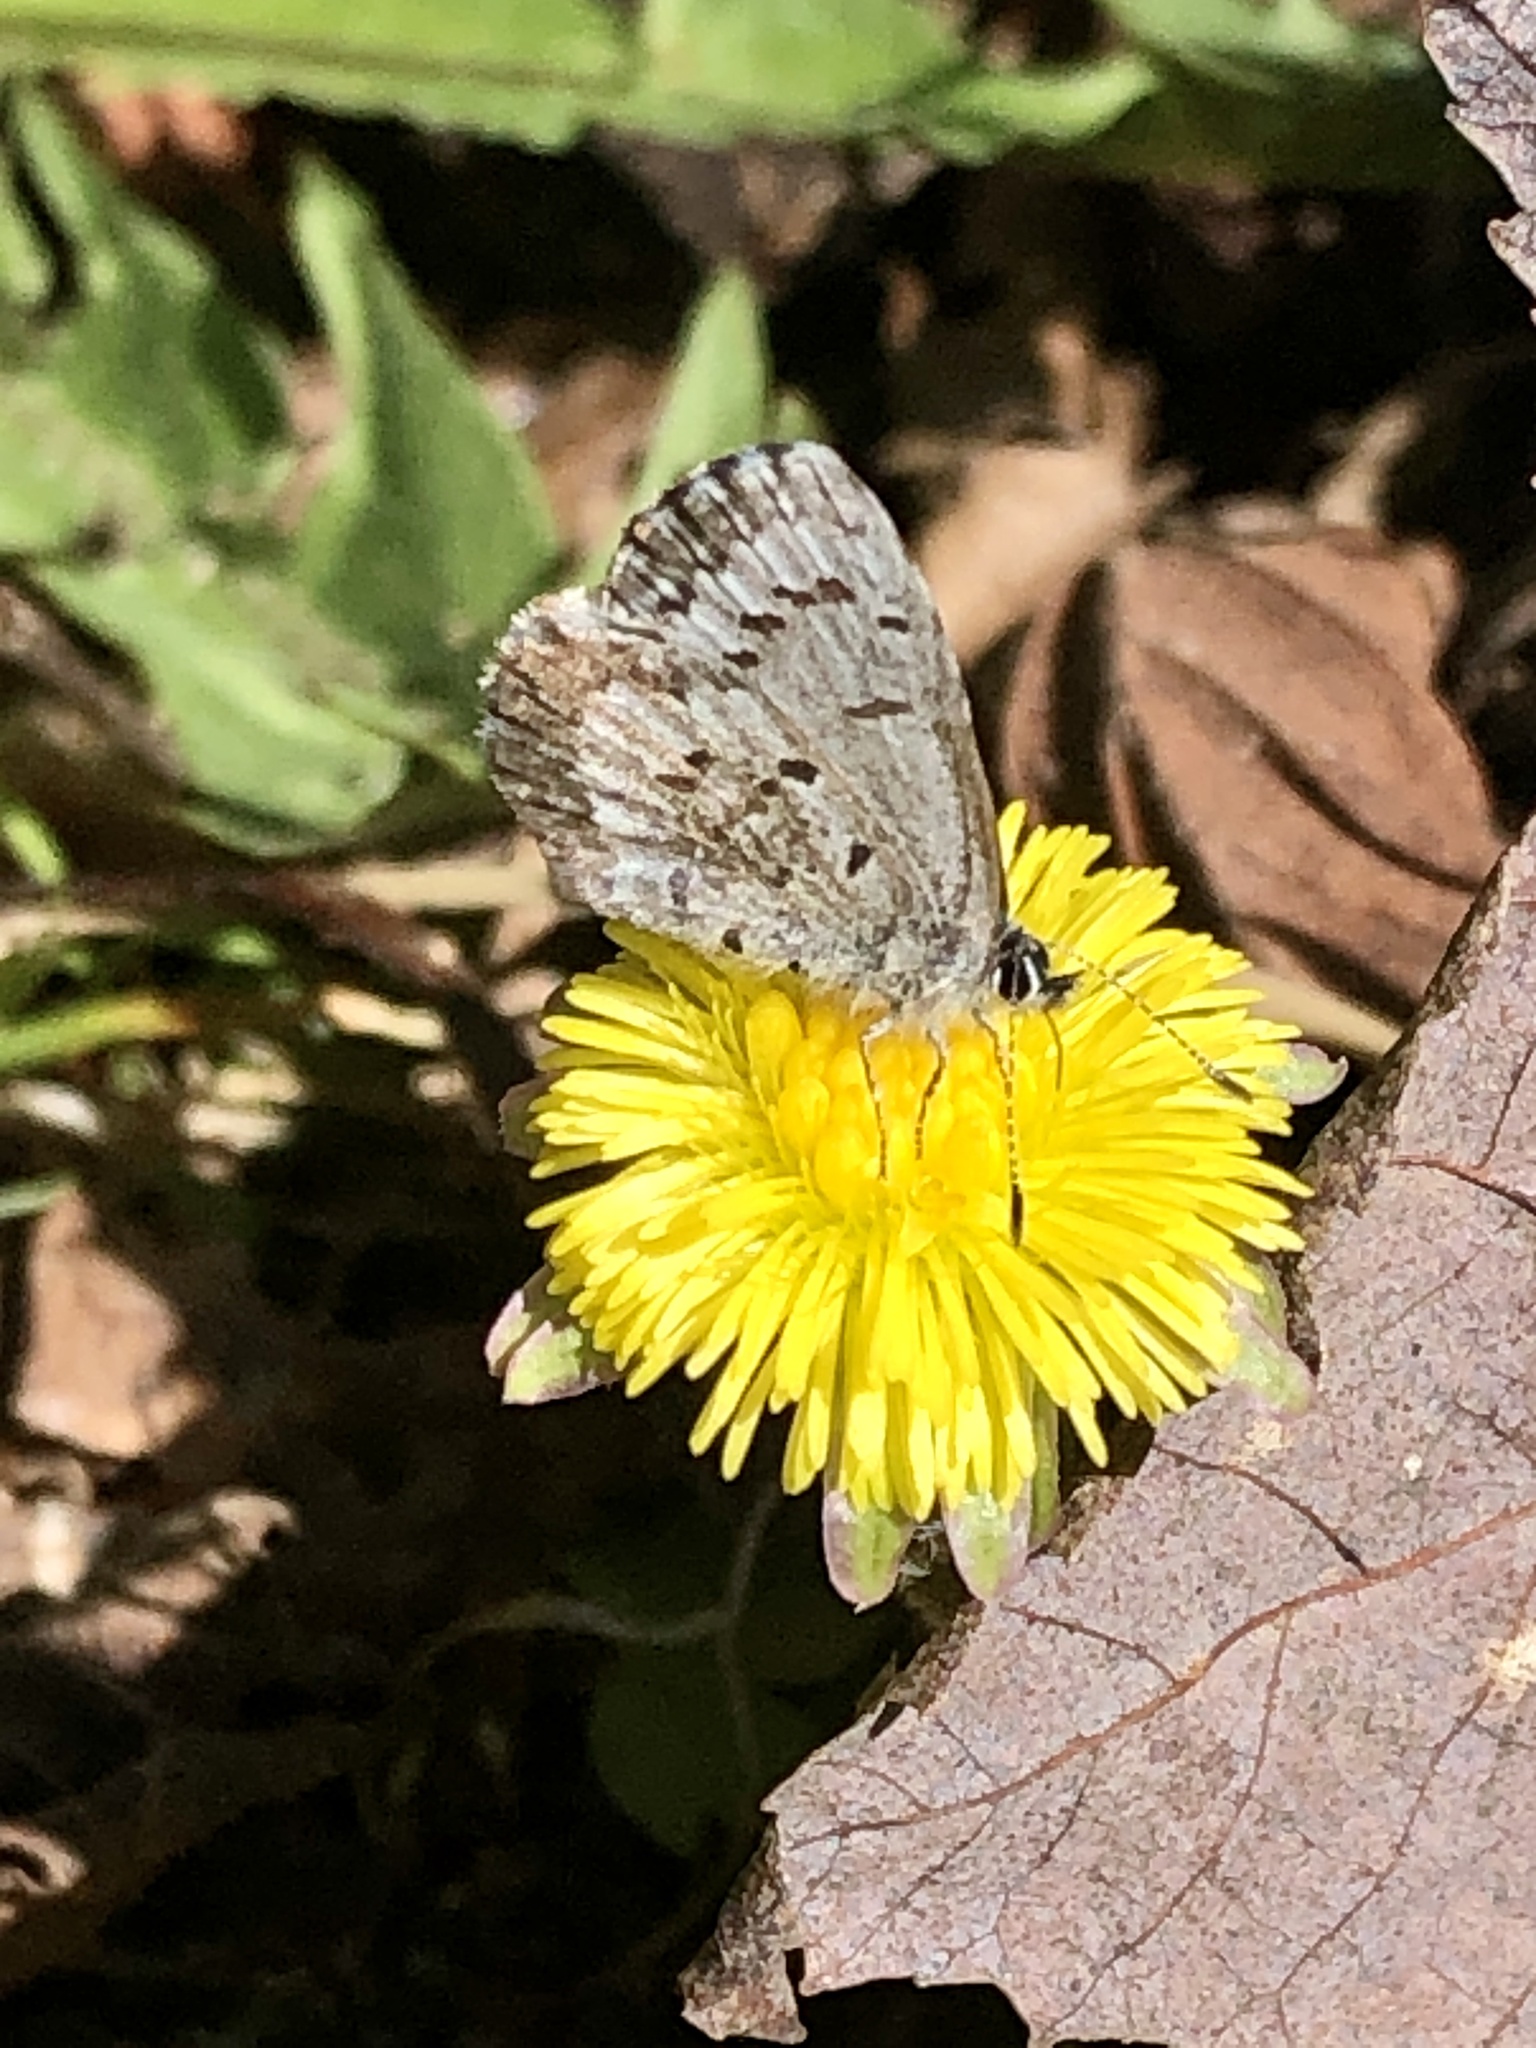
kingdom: Animalia
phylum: Arthropoda
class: Insecta
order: Lepidoptera
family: Lycaenidae
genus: Celastrina
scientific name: Celastrina lucia
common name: Lucia azure
